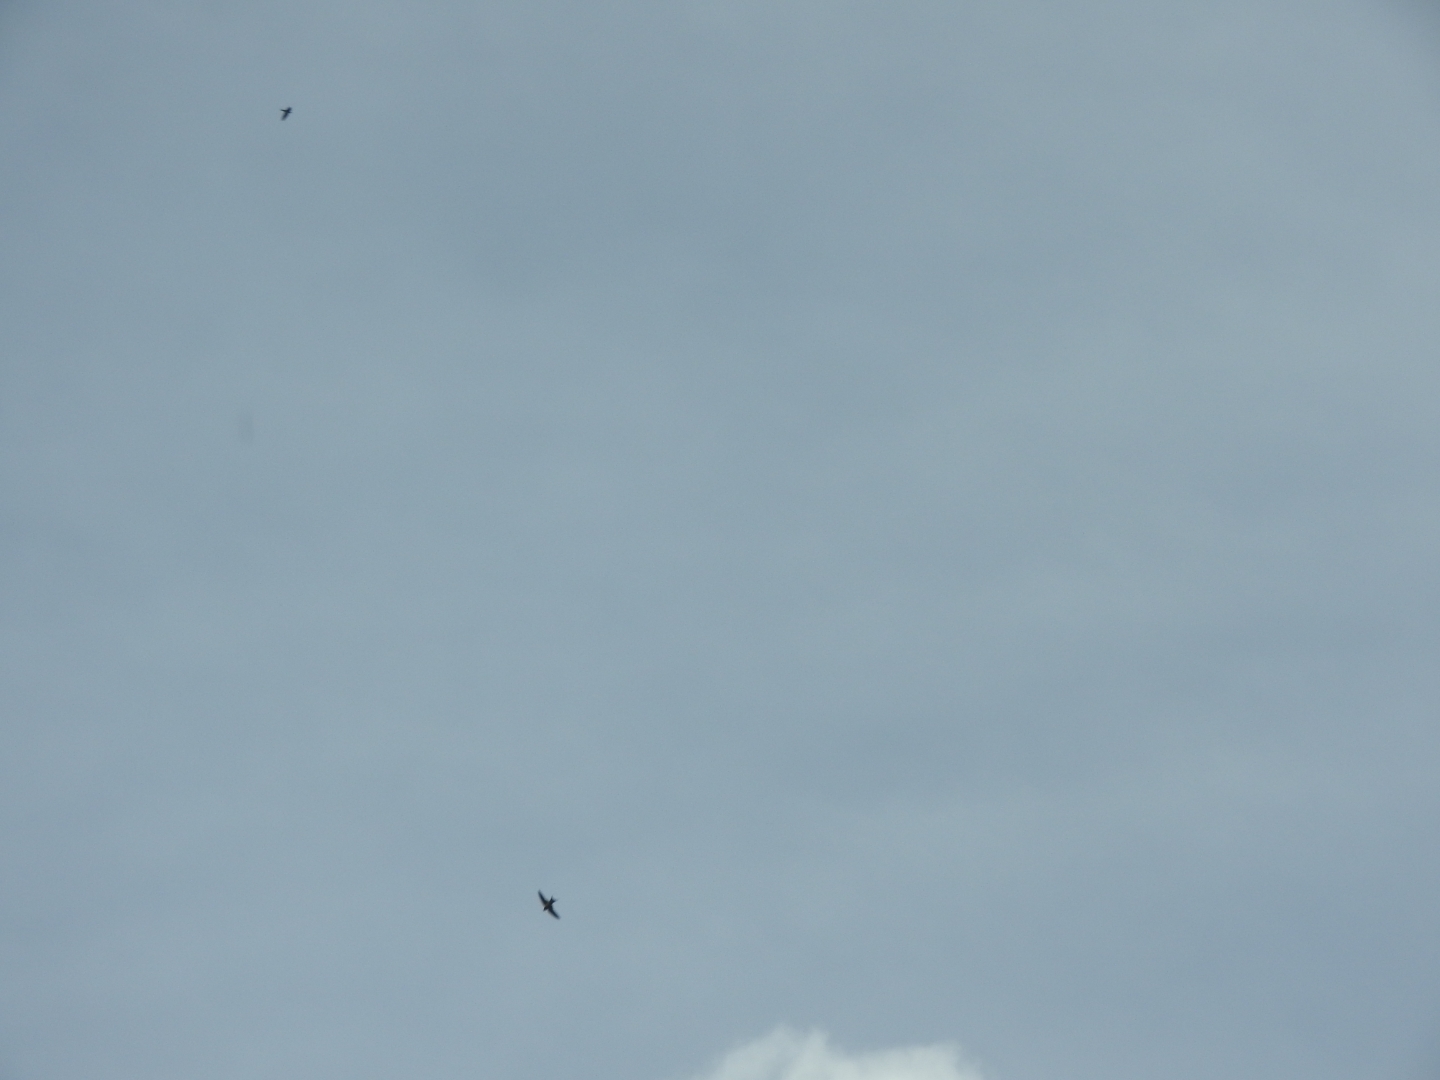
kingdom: Animalia
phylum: Chordata
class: Aves
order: Passeriformes
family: Hirundinidae
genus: Hirundo
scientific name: Hirundo rustica
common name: Barn swallow
